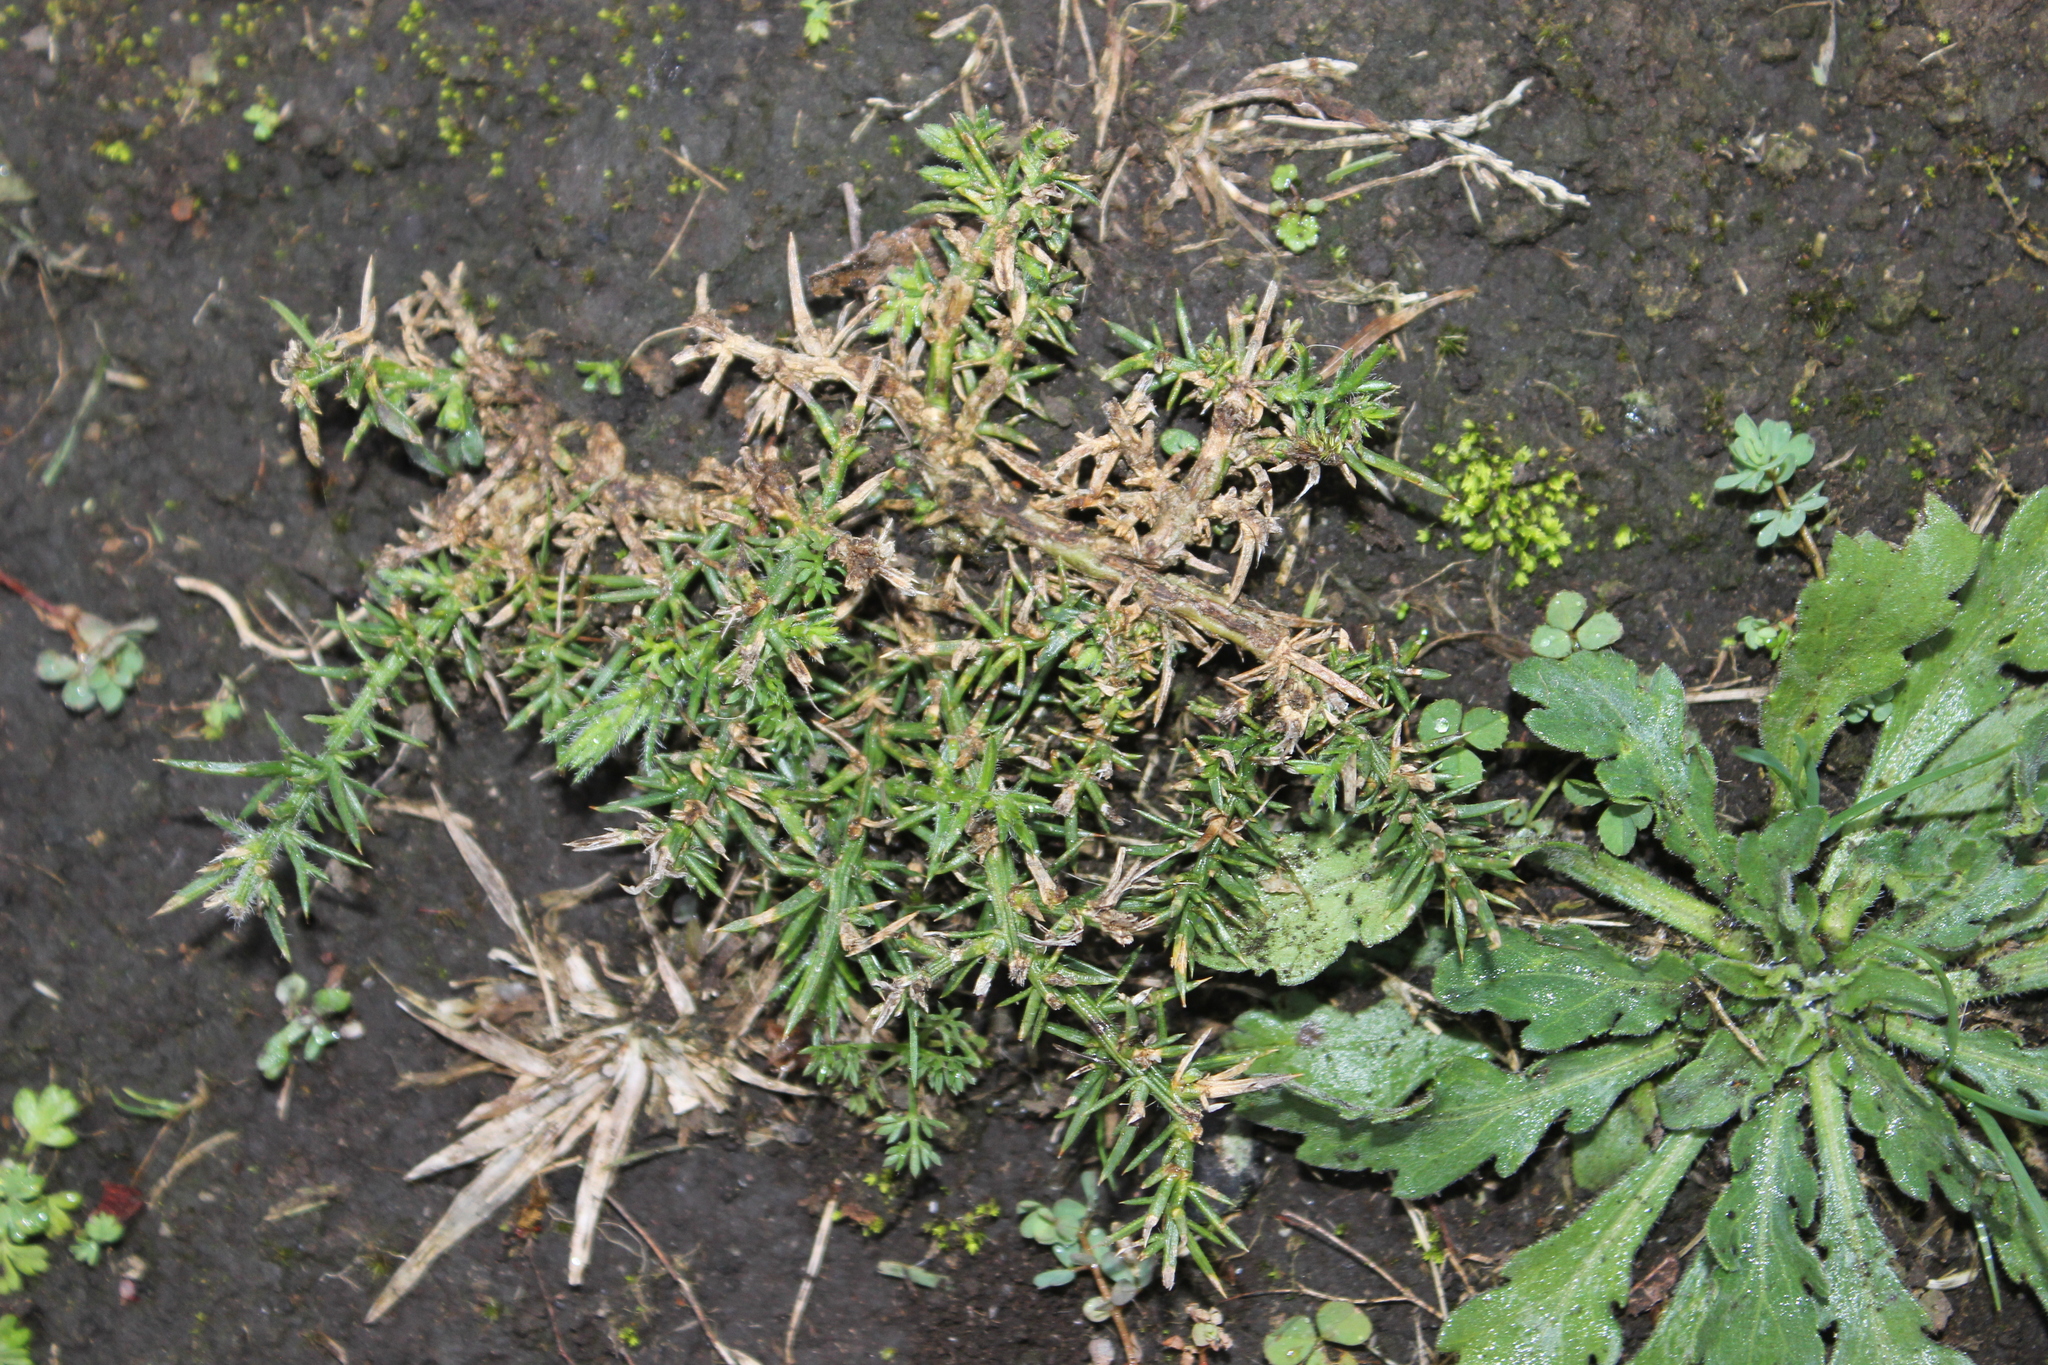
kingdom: Plantae
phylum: Tracheophyta
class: Magnoliopsida
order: Fabales
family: Fabaceae
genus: Ulex
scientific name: Ulex europaeus
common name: Common gorse
